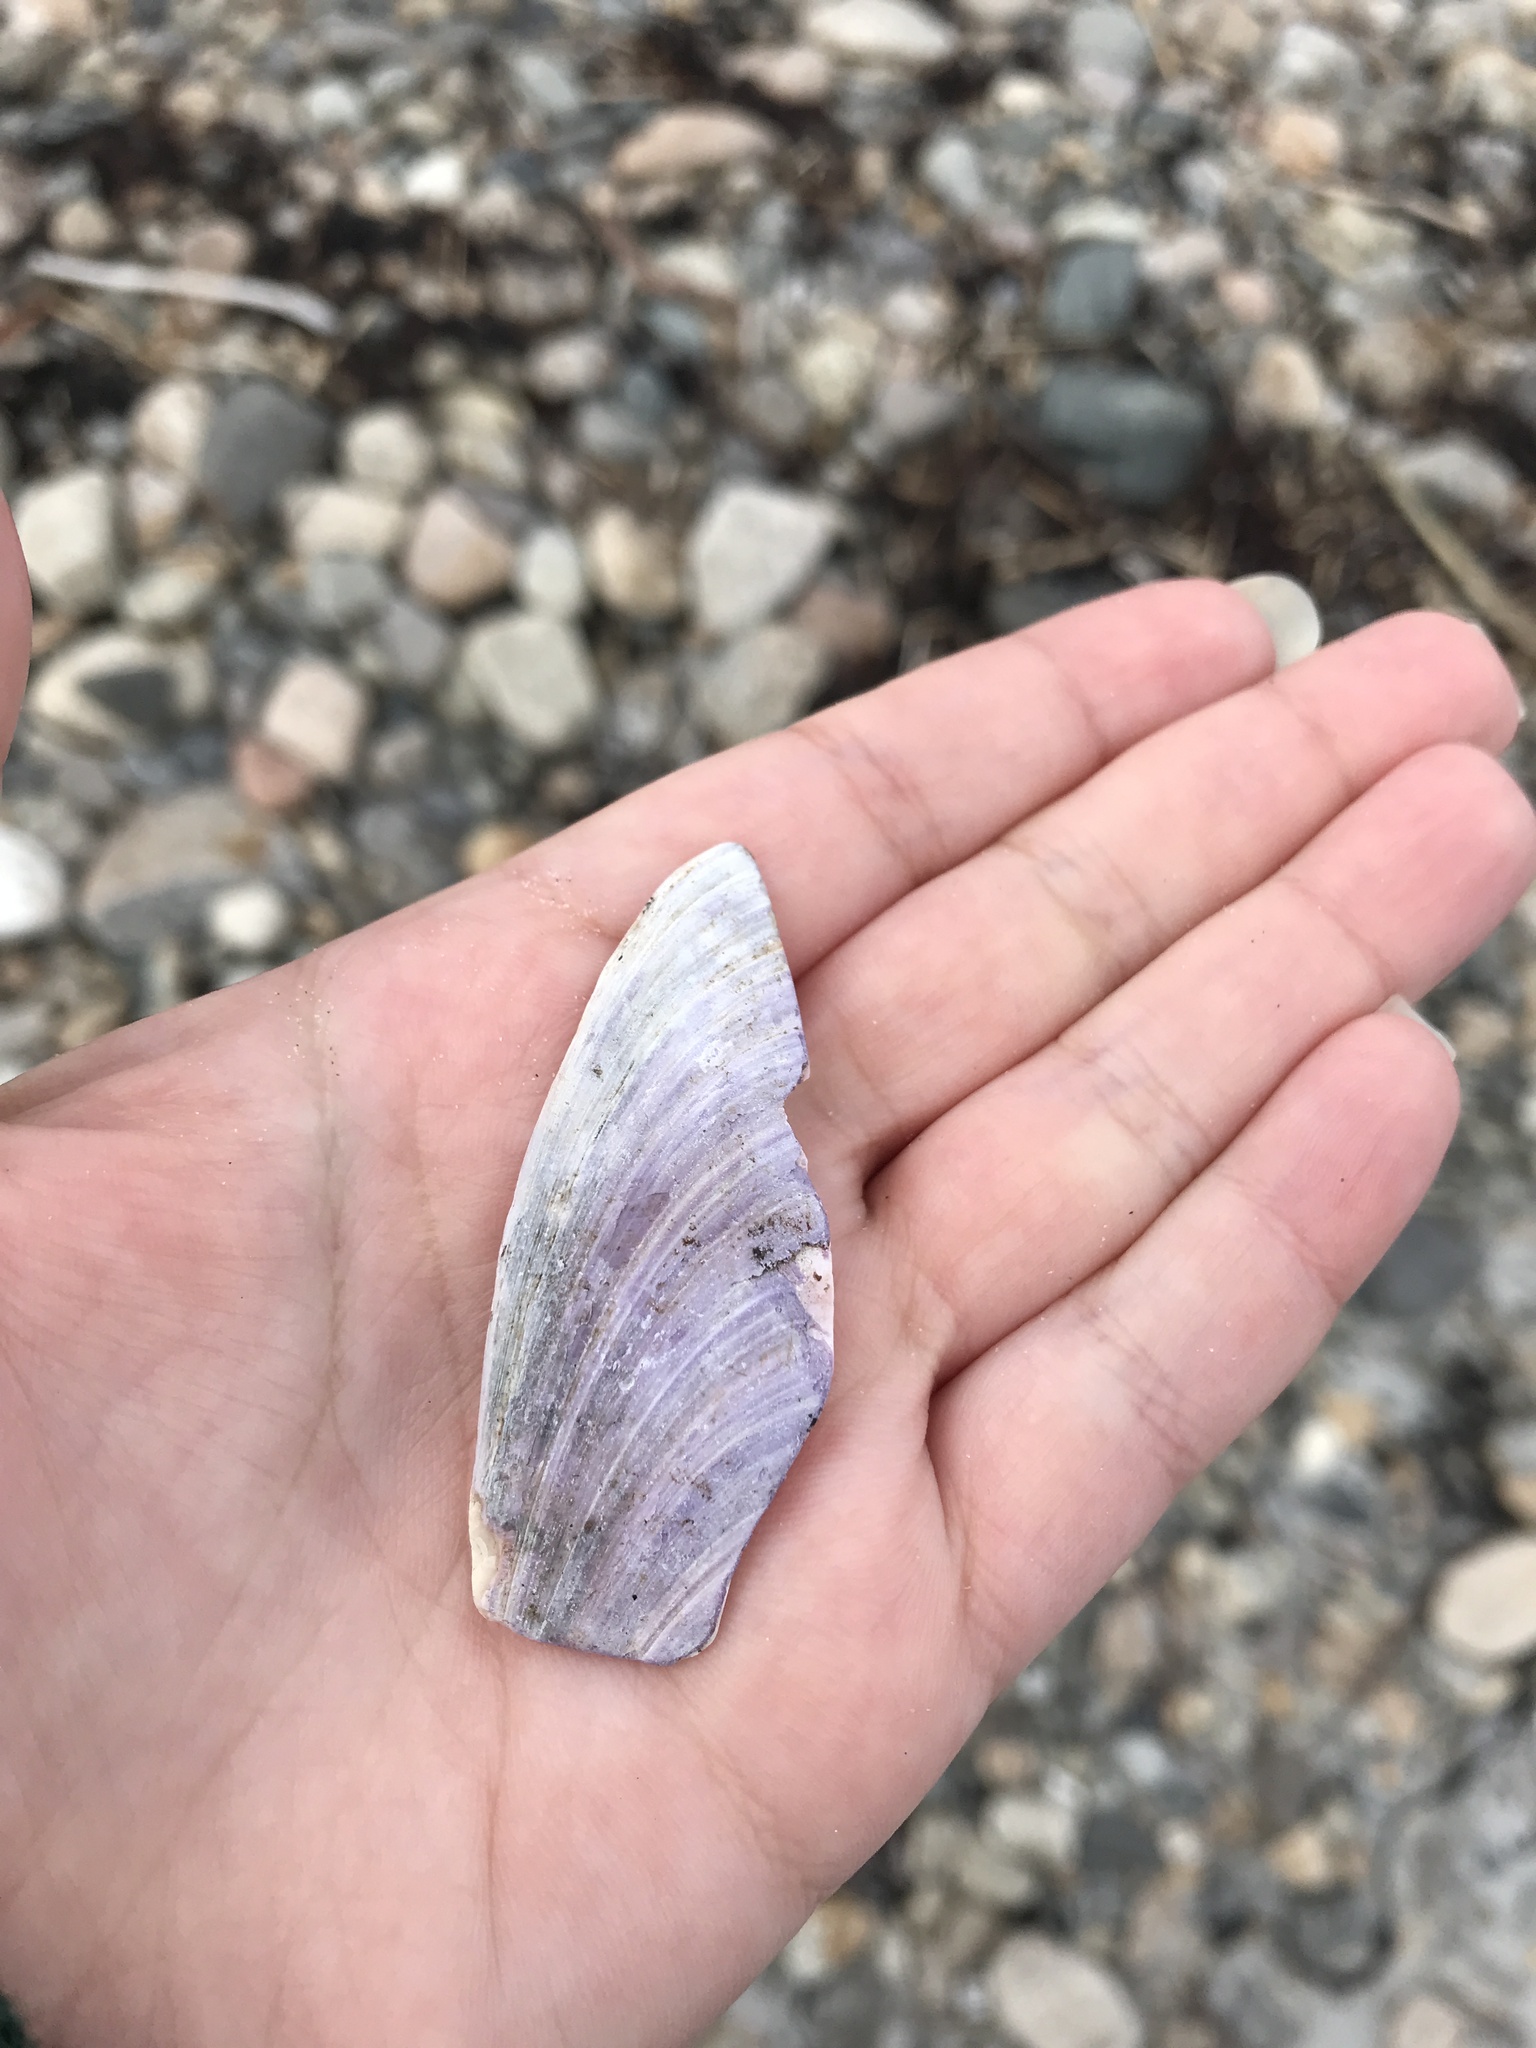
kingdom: Animalia
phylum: Mollusca
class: Bivalvia
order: Mytilida
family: Mytilidae
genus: Modiolus
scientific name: Modiolus modiolus
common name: Horse-mussel
